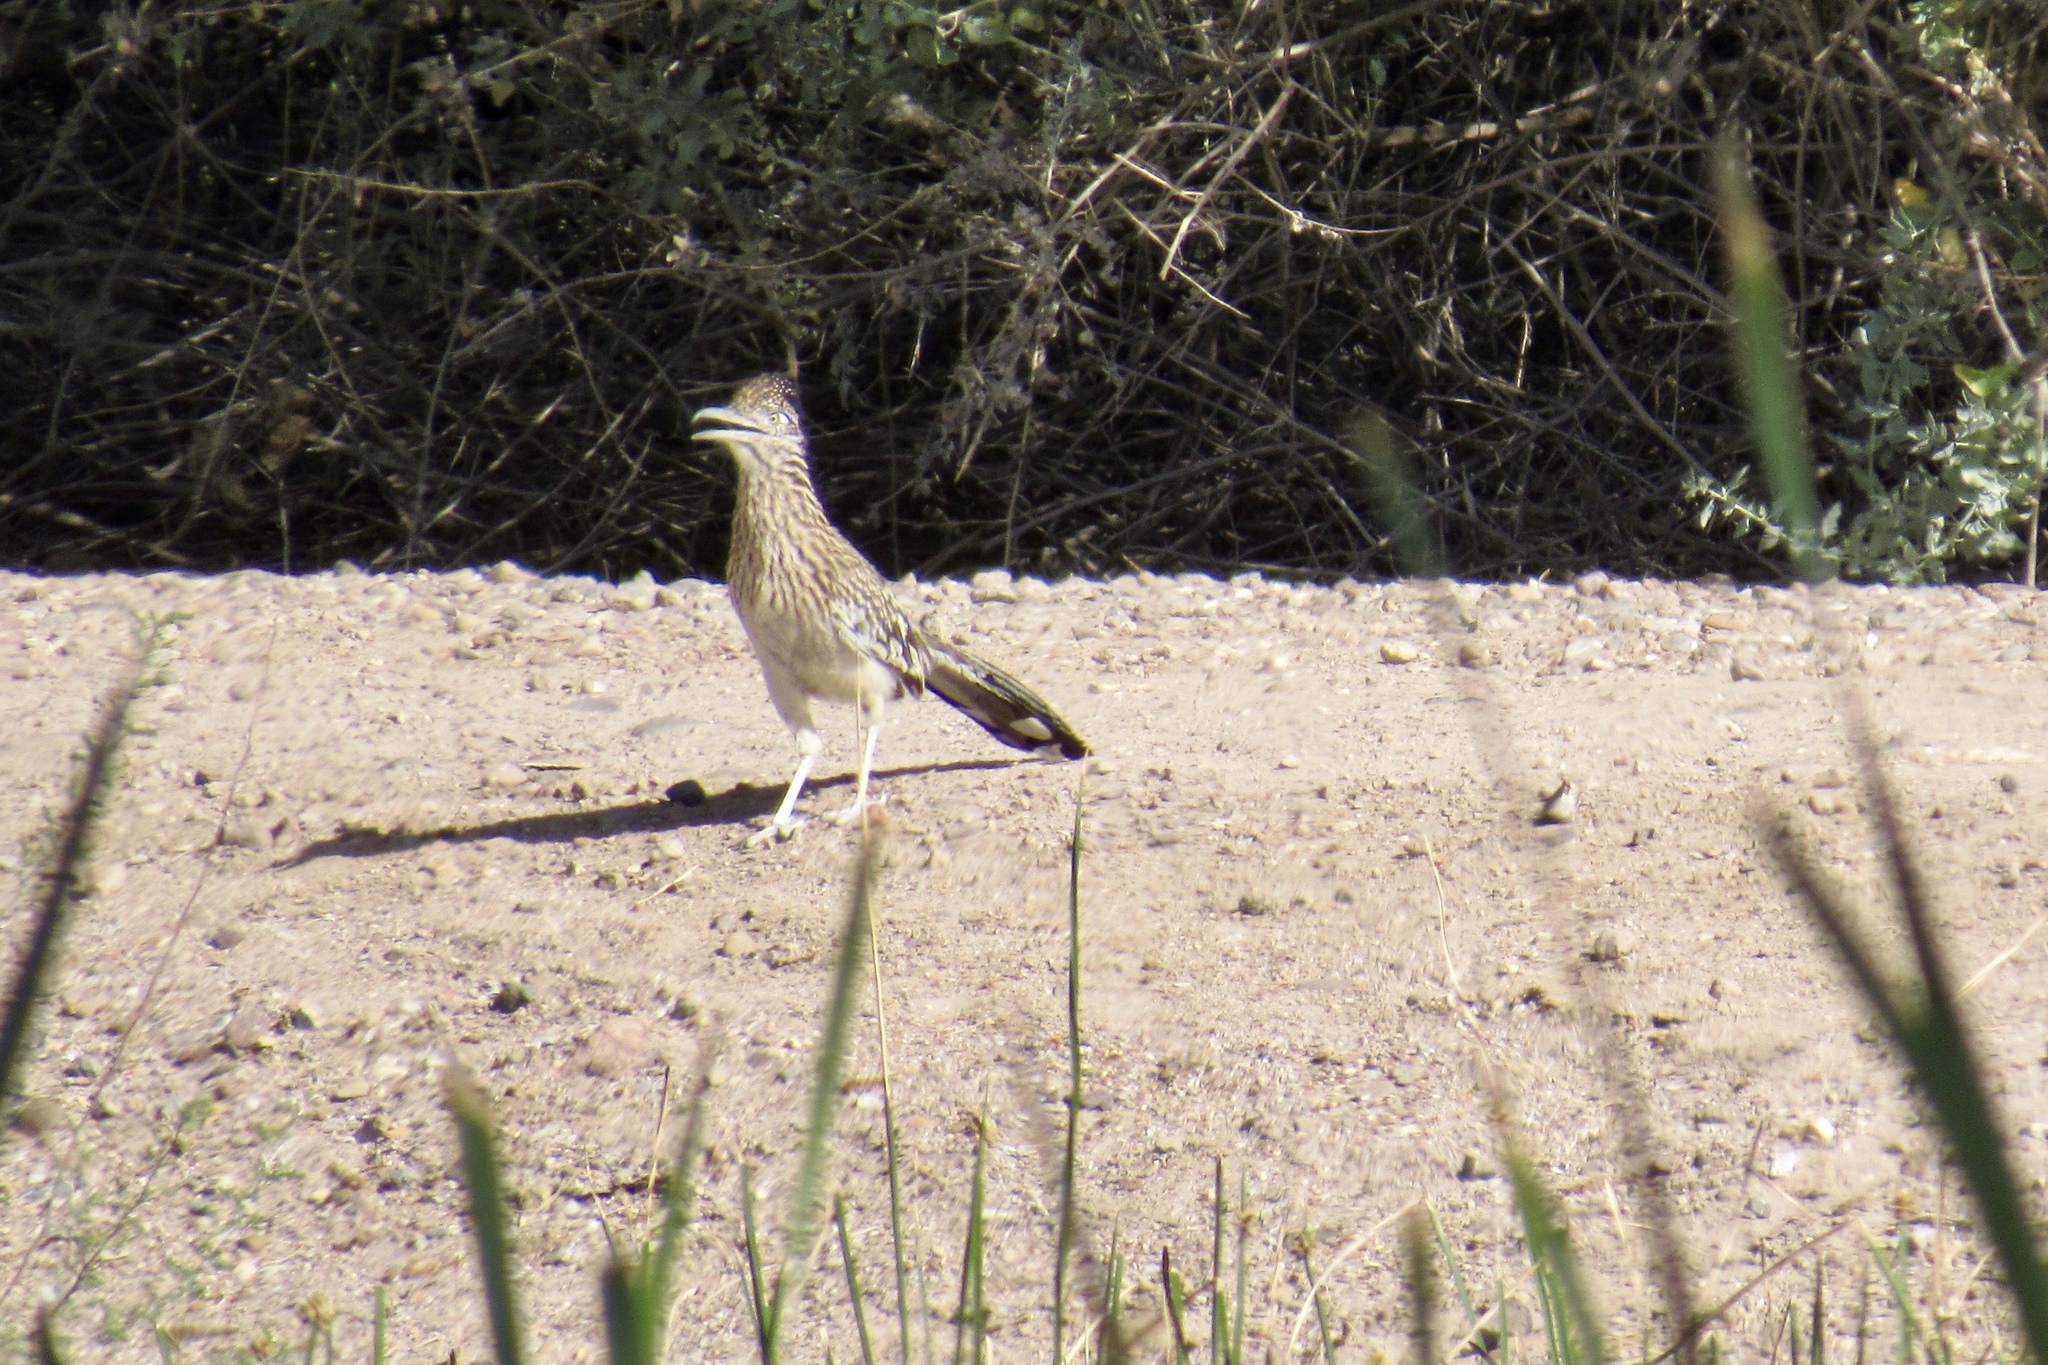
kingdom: Animalia
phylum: Chordata
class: Aves
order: Cuculiformes
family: Cuculidae
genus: Geococcyx
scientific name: Geococcyx californianus
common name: Greater roadrunner
